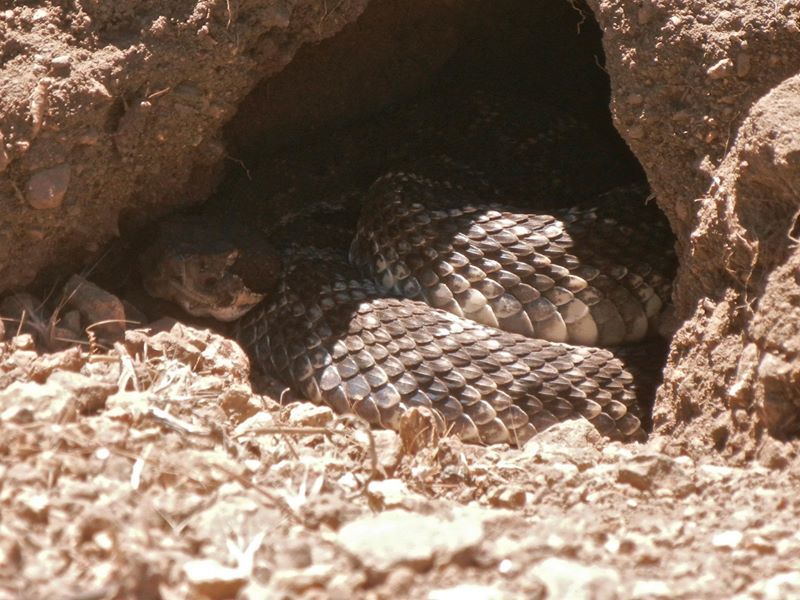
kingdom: Animalia
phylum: Chordata
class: Squamata
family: Viperidae
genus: Crotalus
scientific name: Crotalus oreganus
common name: Abyssus
